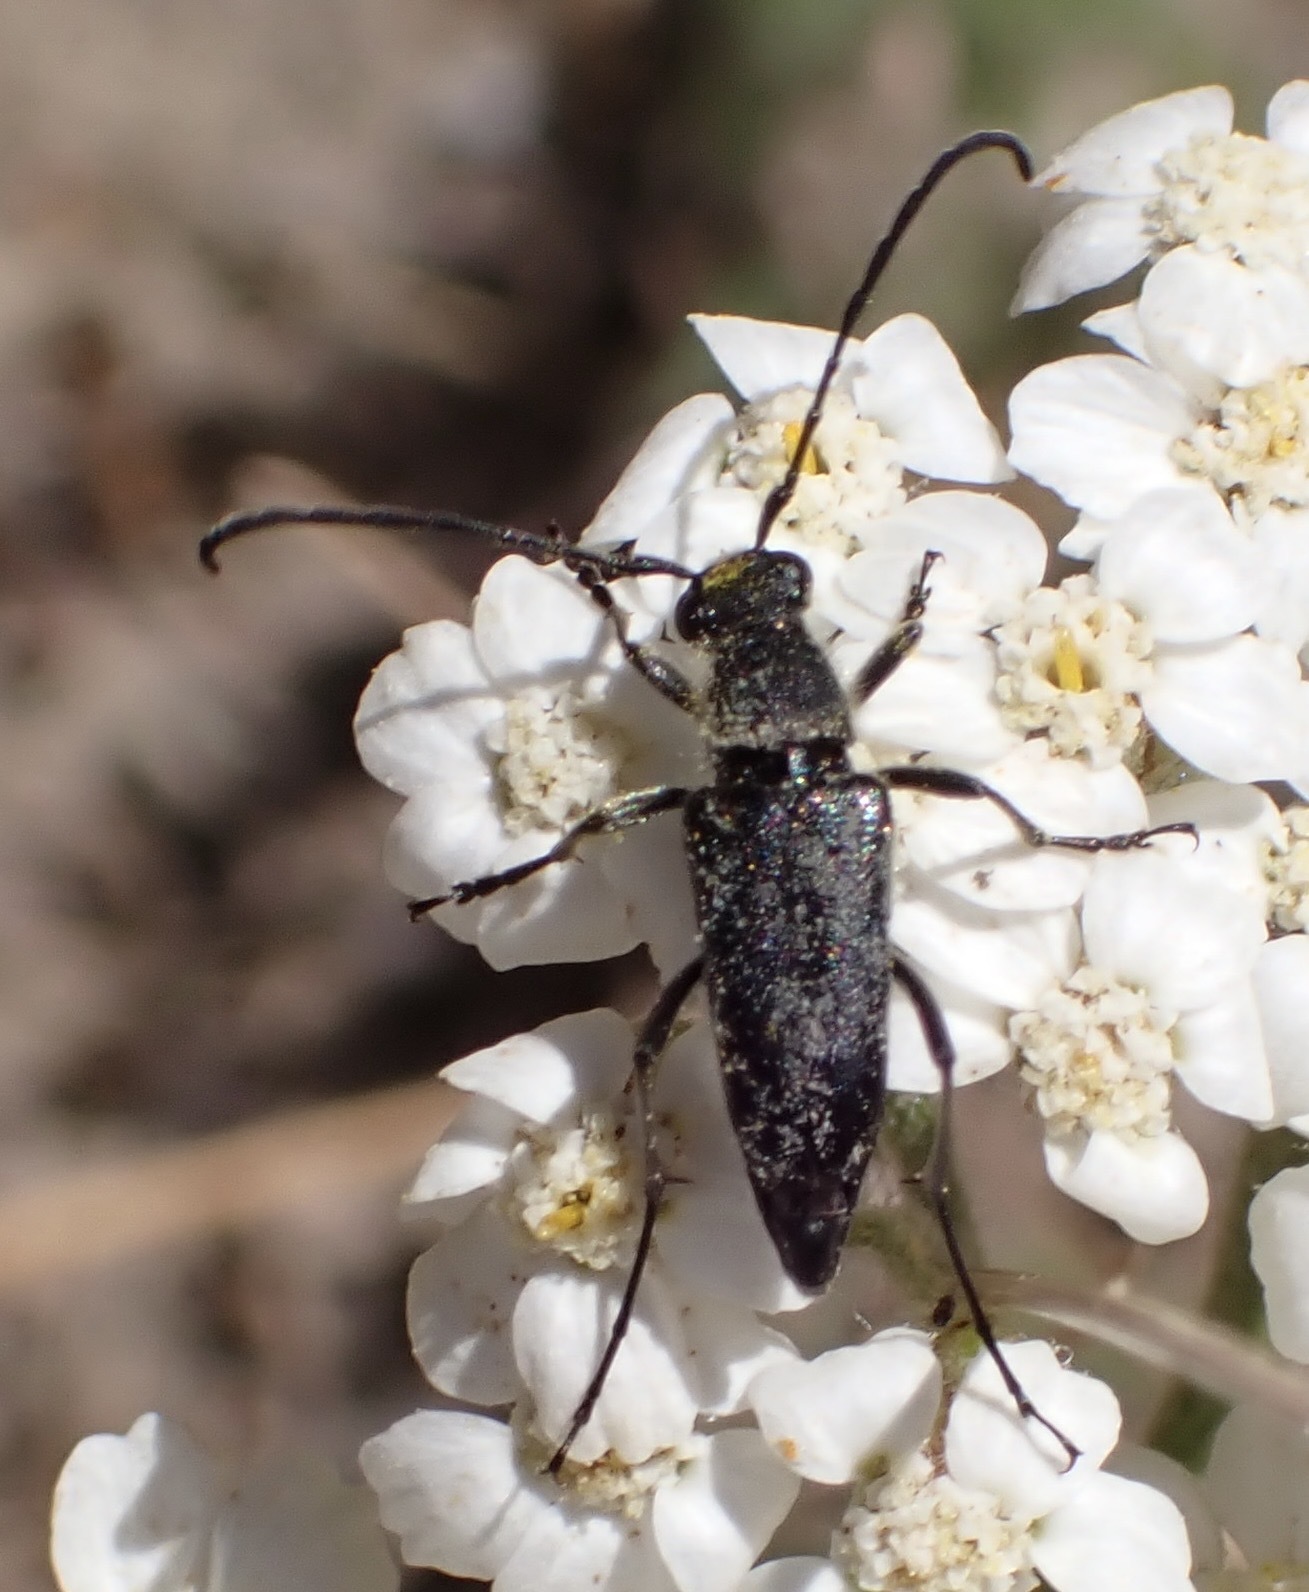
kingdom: Animalia
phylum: Arthropoda
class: Insecta
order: Coleoptera
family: Cerambycidae
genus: Anastrangalia
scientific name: Anastrangalia laetifica
